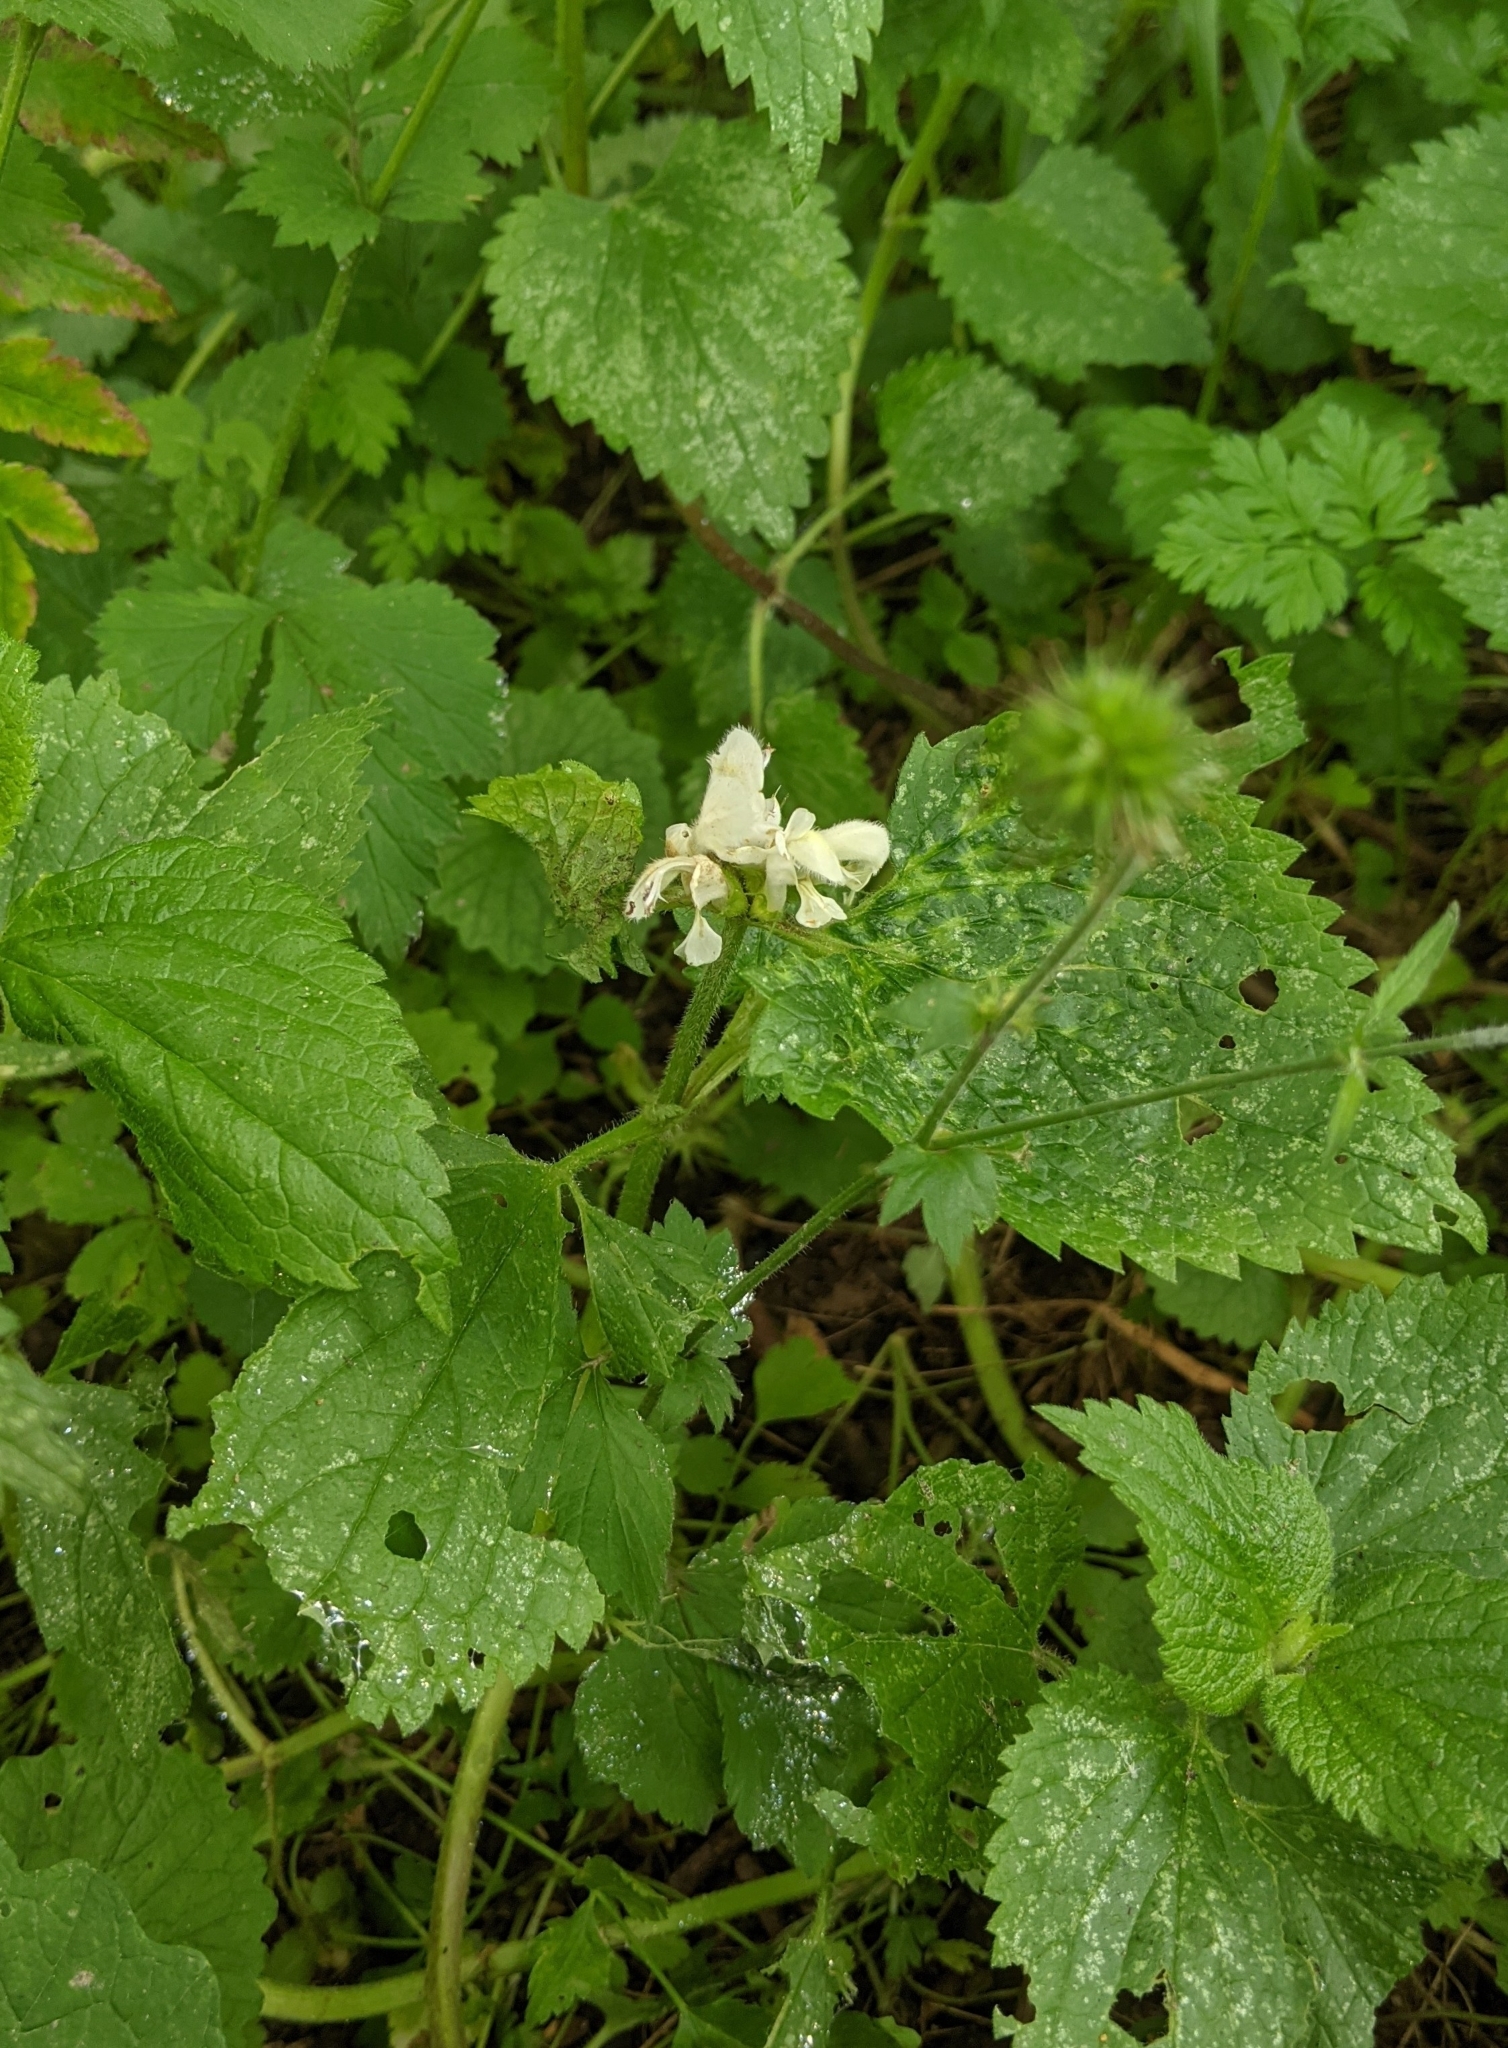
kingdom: Plantae
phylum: Tracheophyta
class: Magnoliopsida
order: Lamiales
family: Lamiaceae
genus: Lamium
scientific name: Lamium album
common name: White dead-nettle
